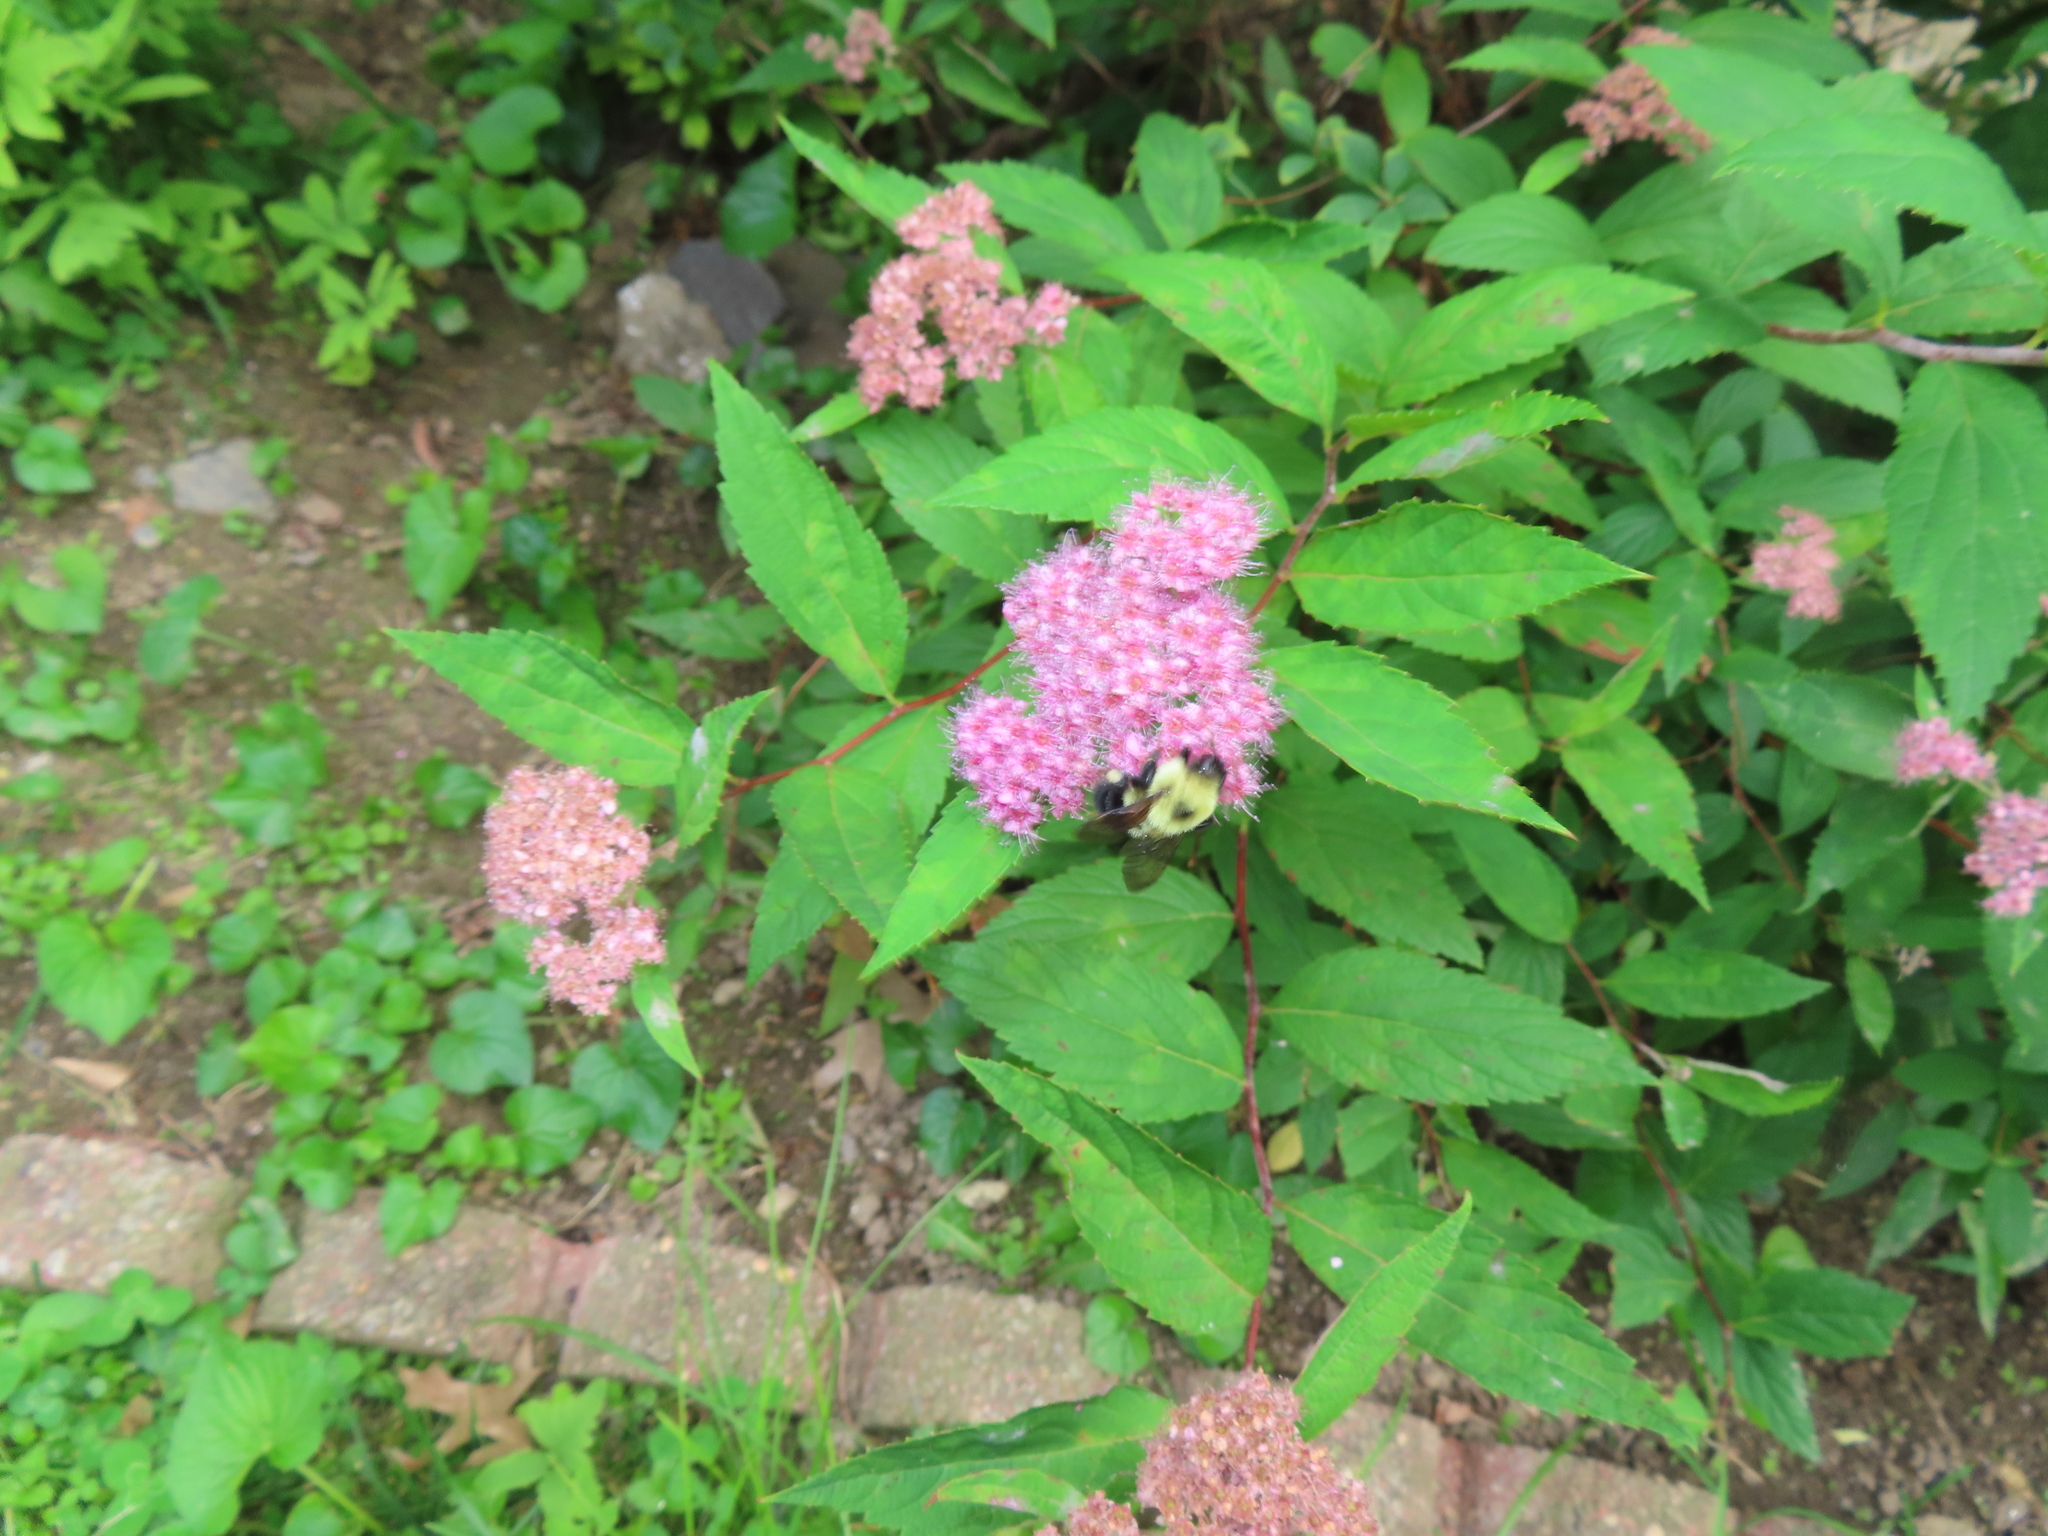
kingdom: Animalia
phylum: Arthropoda
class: Insecta
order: Hymenoptera
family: Apidae
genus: Bombus
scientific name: Bombus bimaculatus
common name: Two-spotted bumble bee
